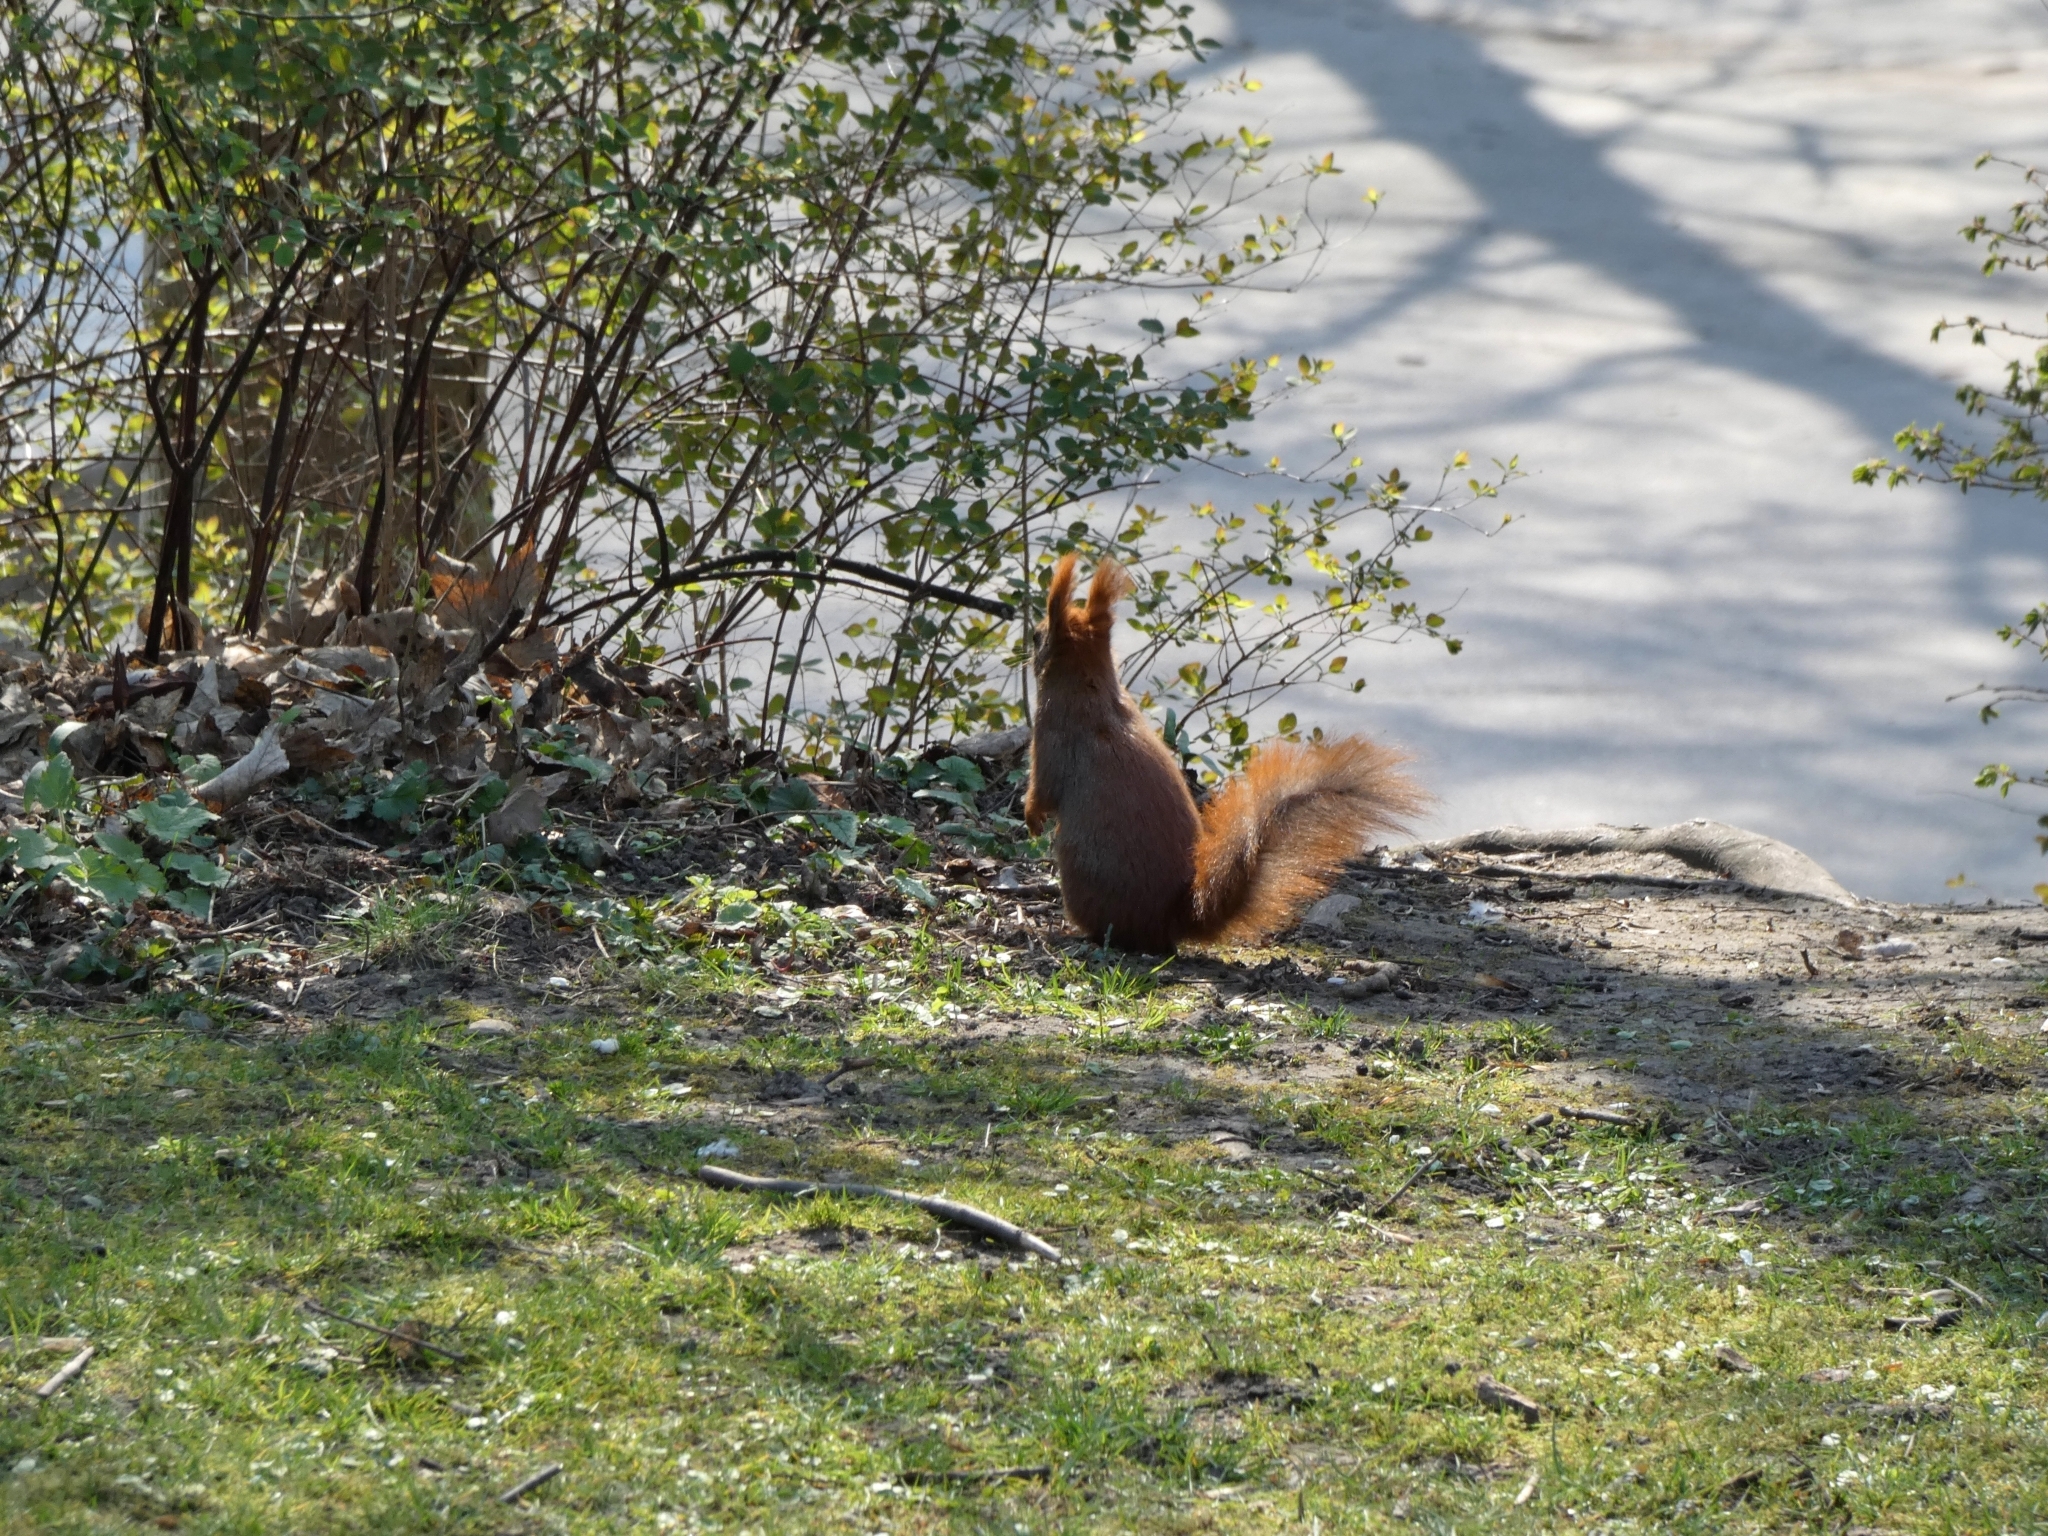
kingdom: Animalia
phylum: Chordata
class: Mammalia
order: Rodentia
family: Sciuridae
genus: Sciurus
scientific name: Sciurus vulgaris
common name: Eurasian red squirrel
